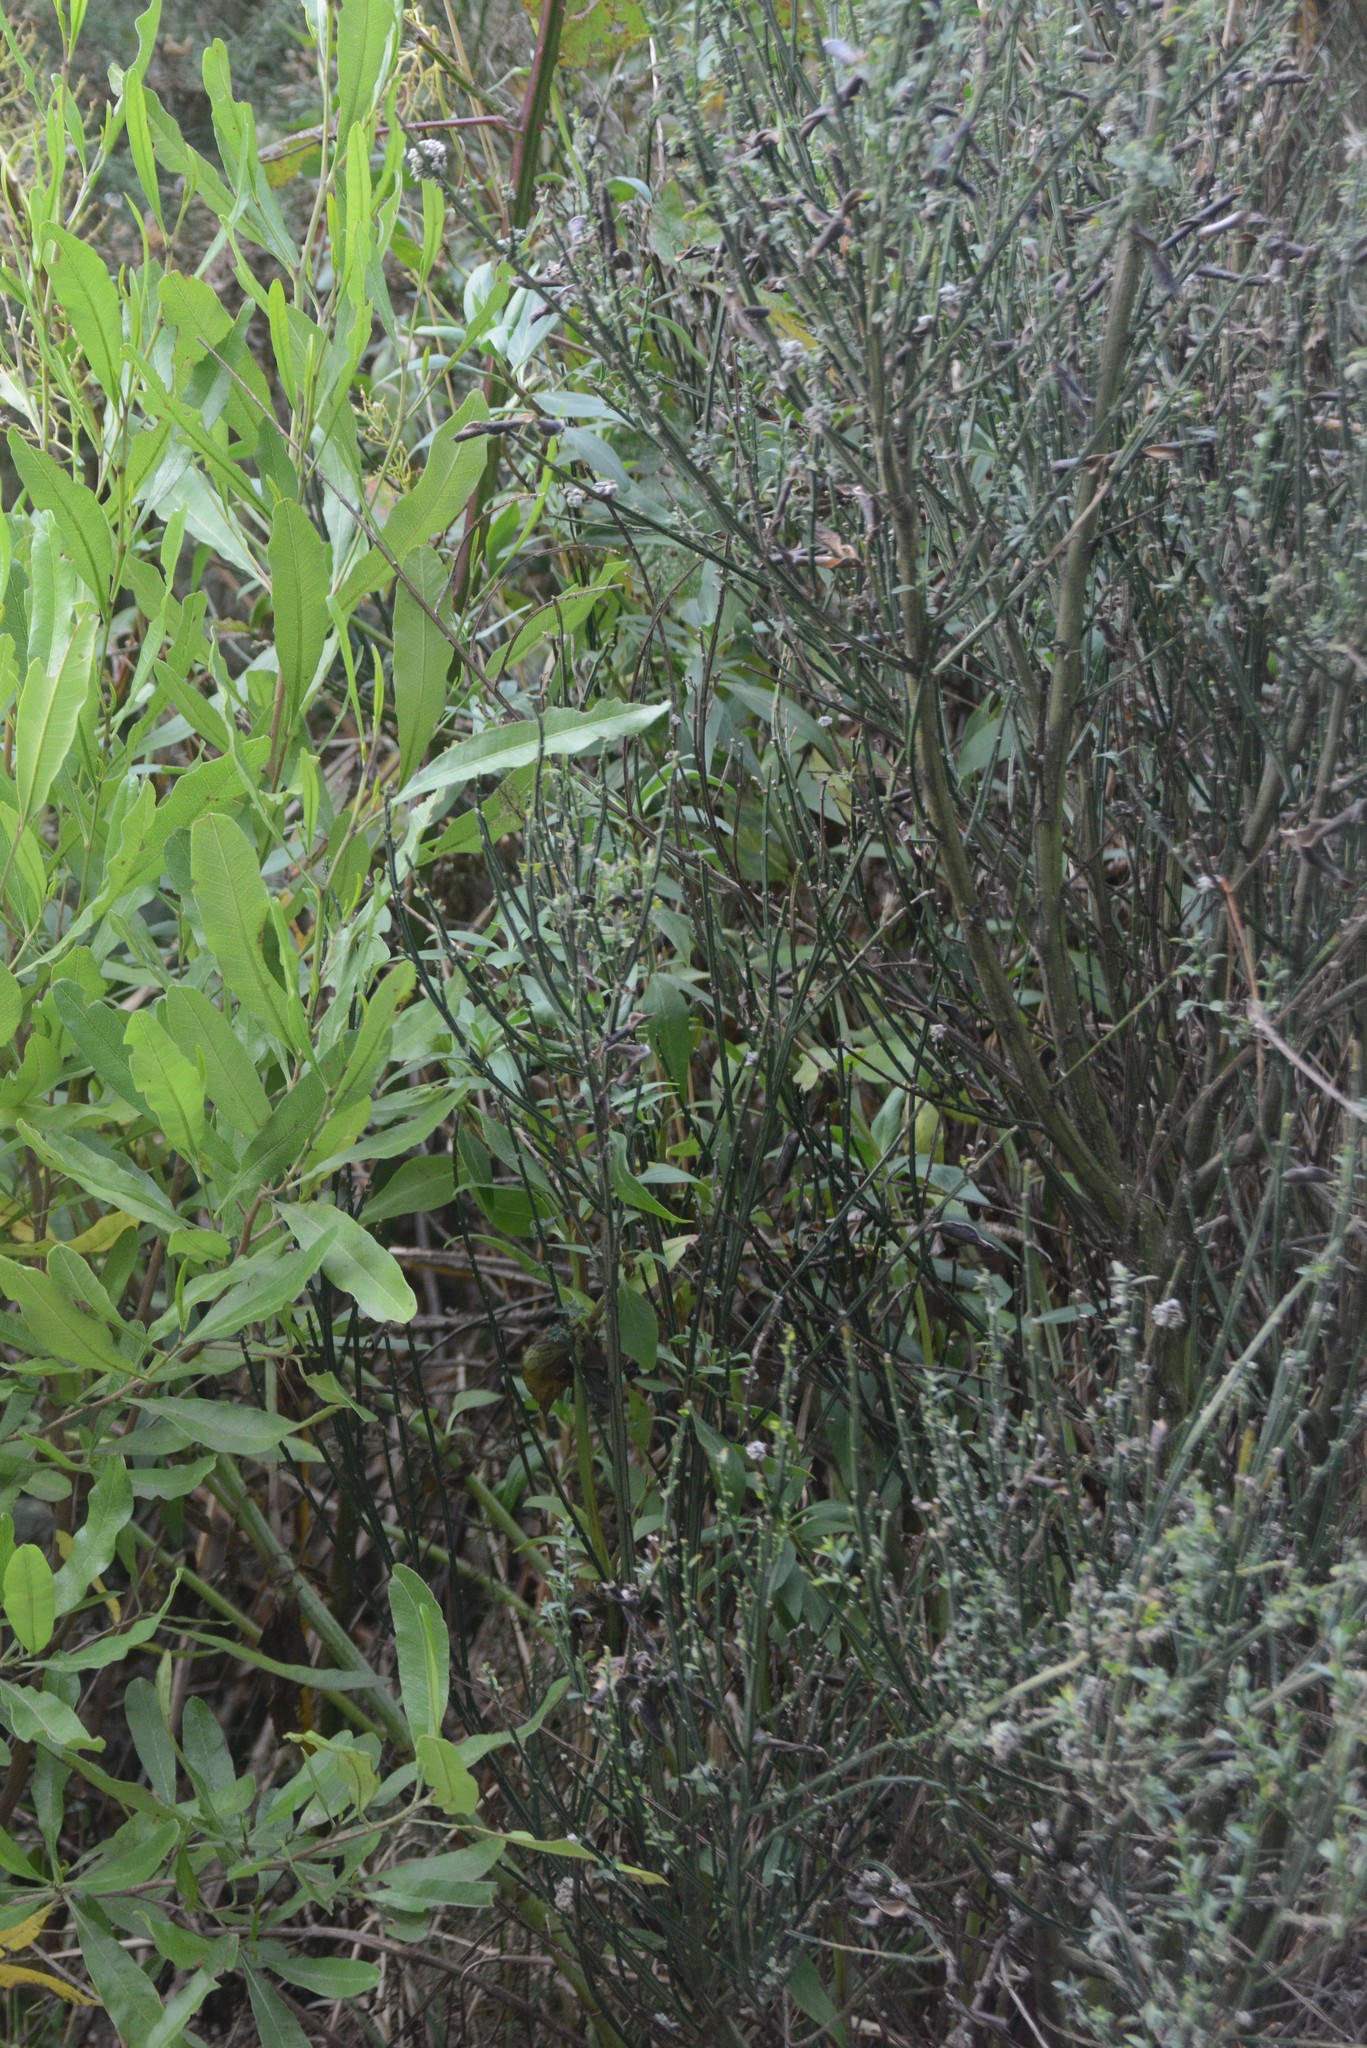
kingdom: Plantae
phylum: Tracheophyta
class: Magnoliopsida
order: Fabales
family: Fabaceae
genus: Cytisus
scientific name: Cytisus scoparius
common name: Scotch broom
